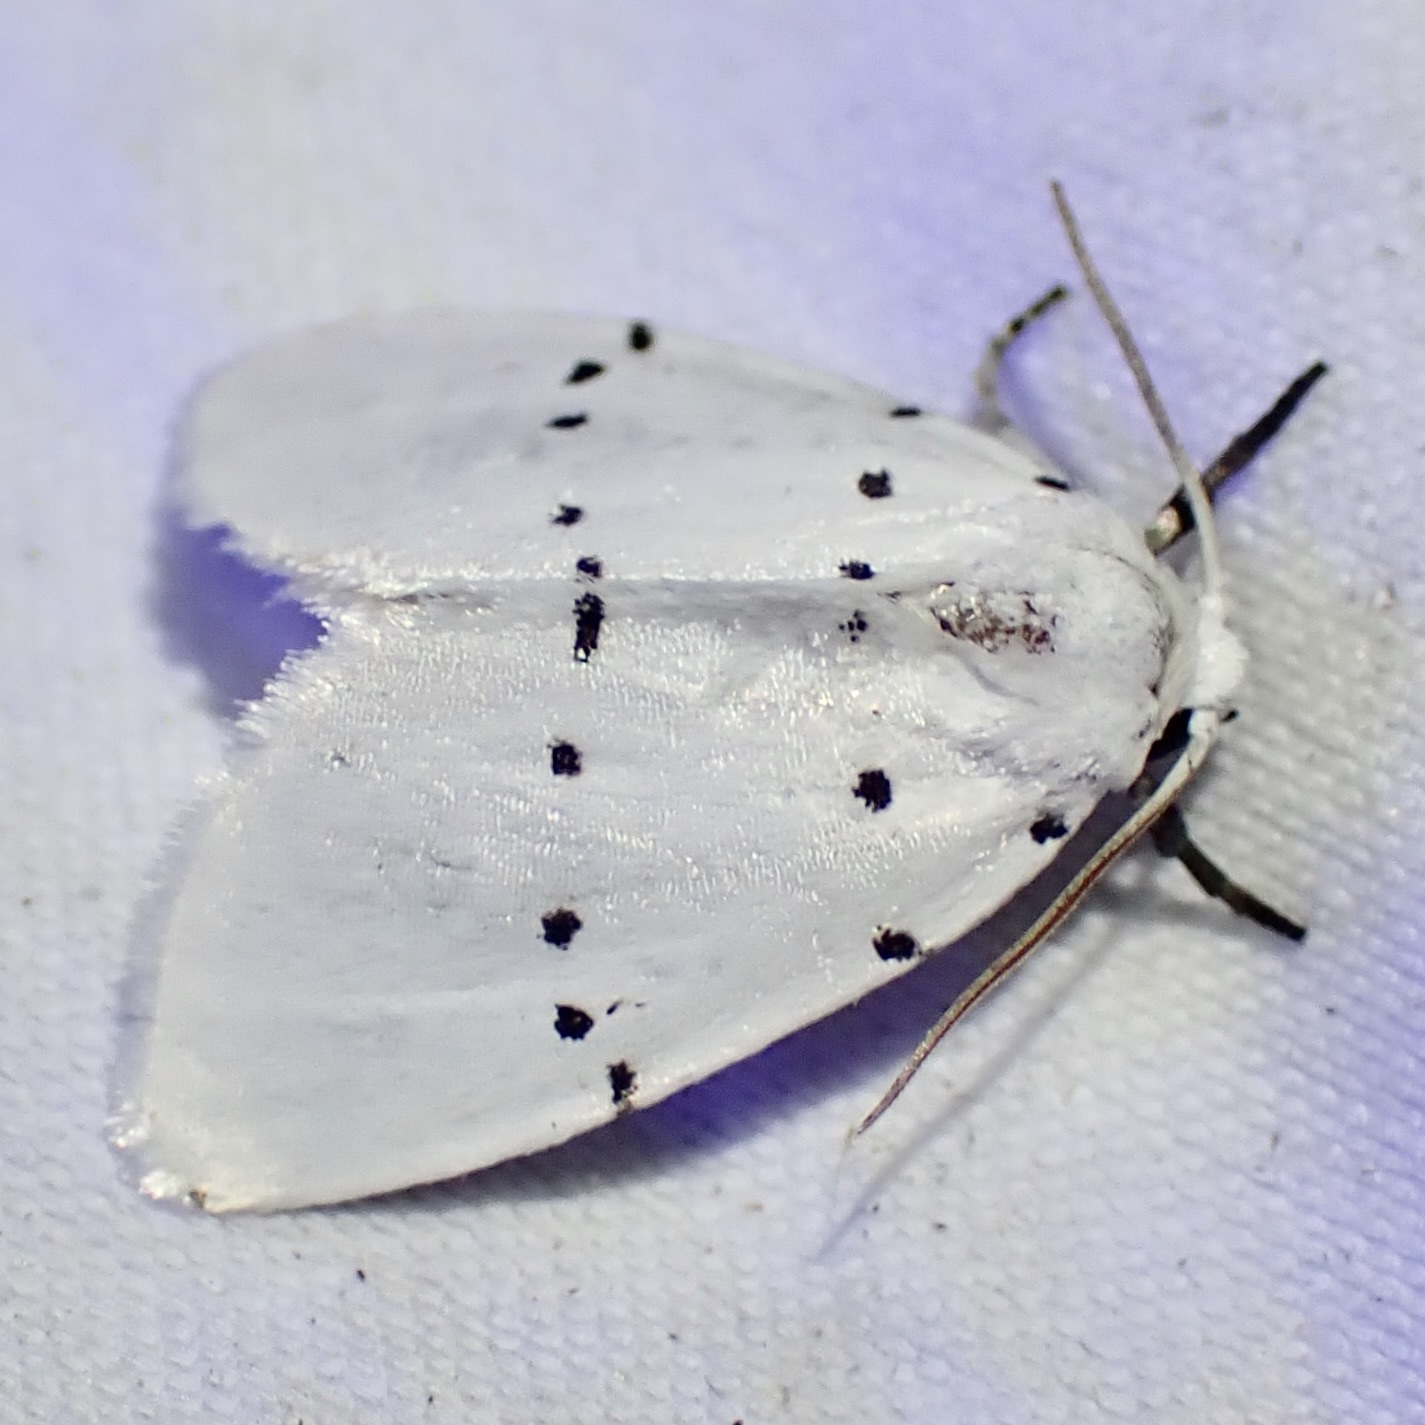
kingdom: Animalia
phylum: Arthropoda
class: Insecta
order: Lepidoptera
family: Noctuidae
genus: Homolagoa
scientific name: Homolagoa grotelliformis
